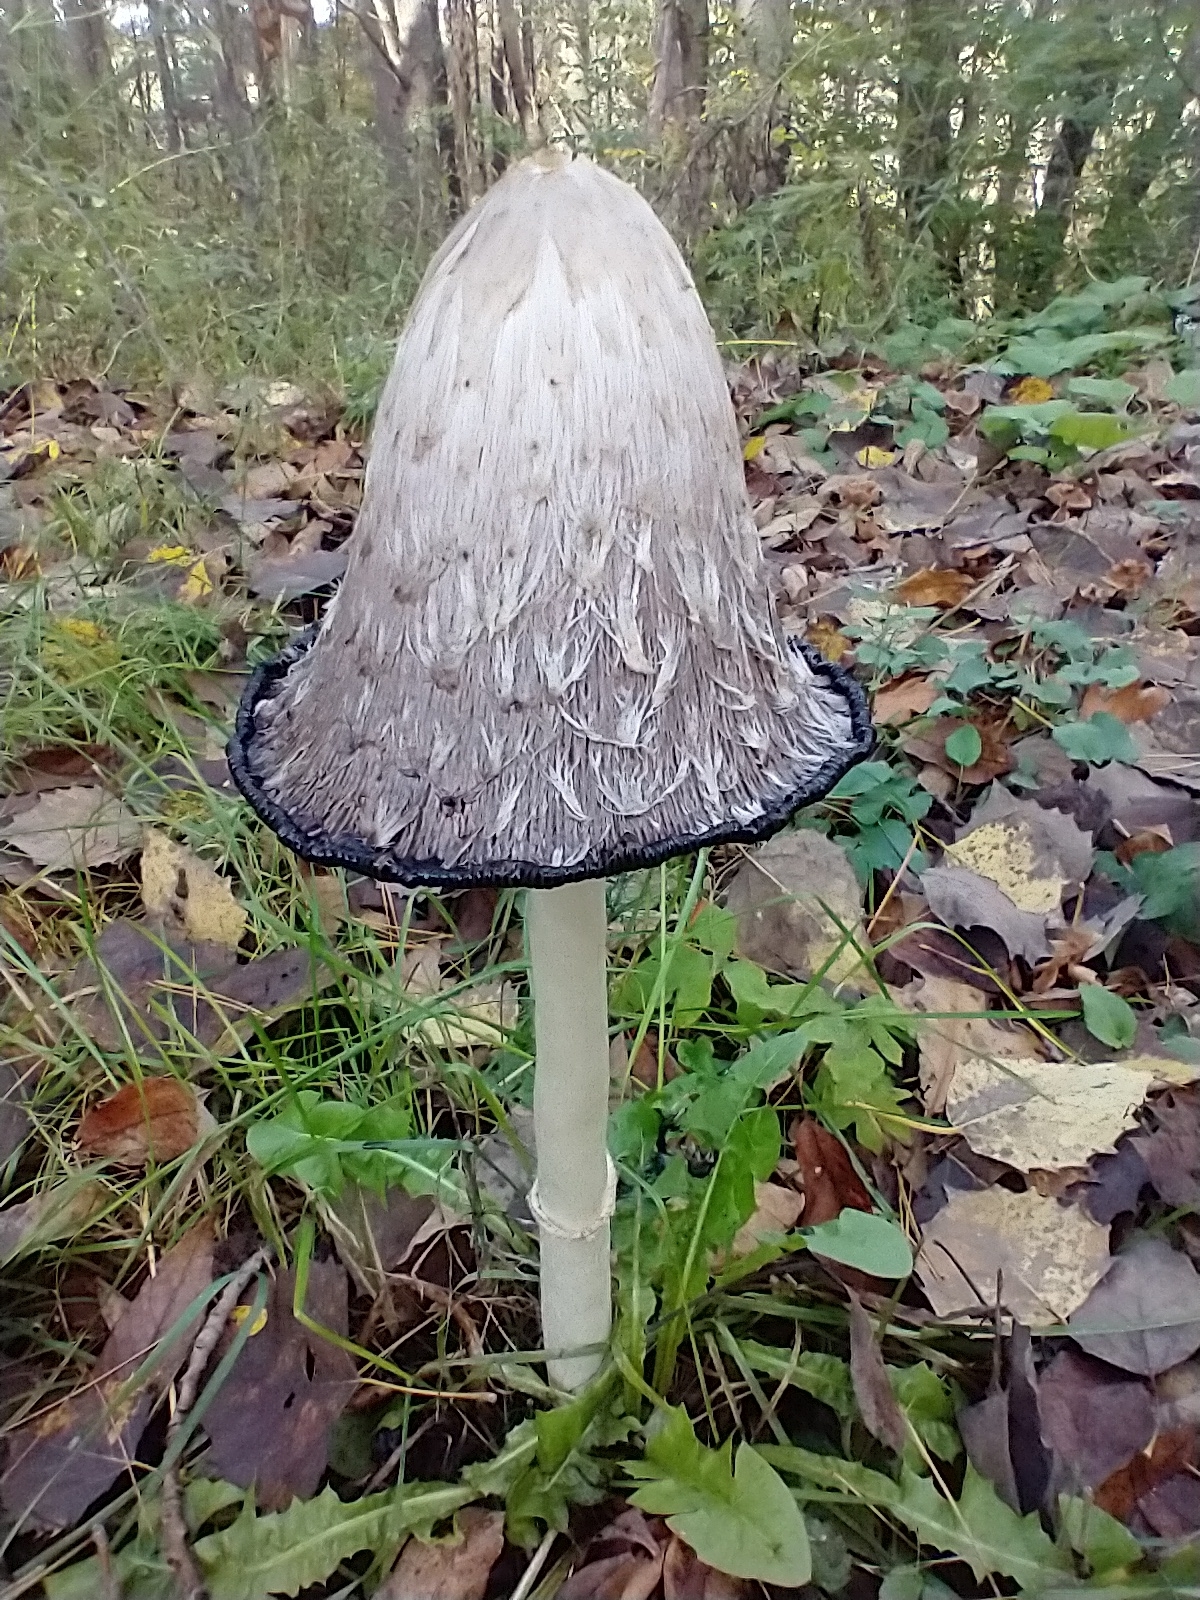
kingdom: Fungi
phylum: Basidiomycota
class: Agaricomycetes
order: Agaricales
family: Agaricaceae
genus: Coprinus
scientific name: Coprinus comatus
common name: Lawyer's wig
